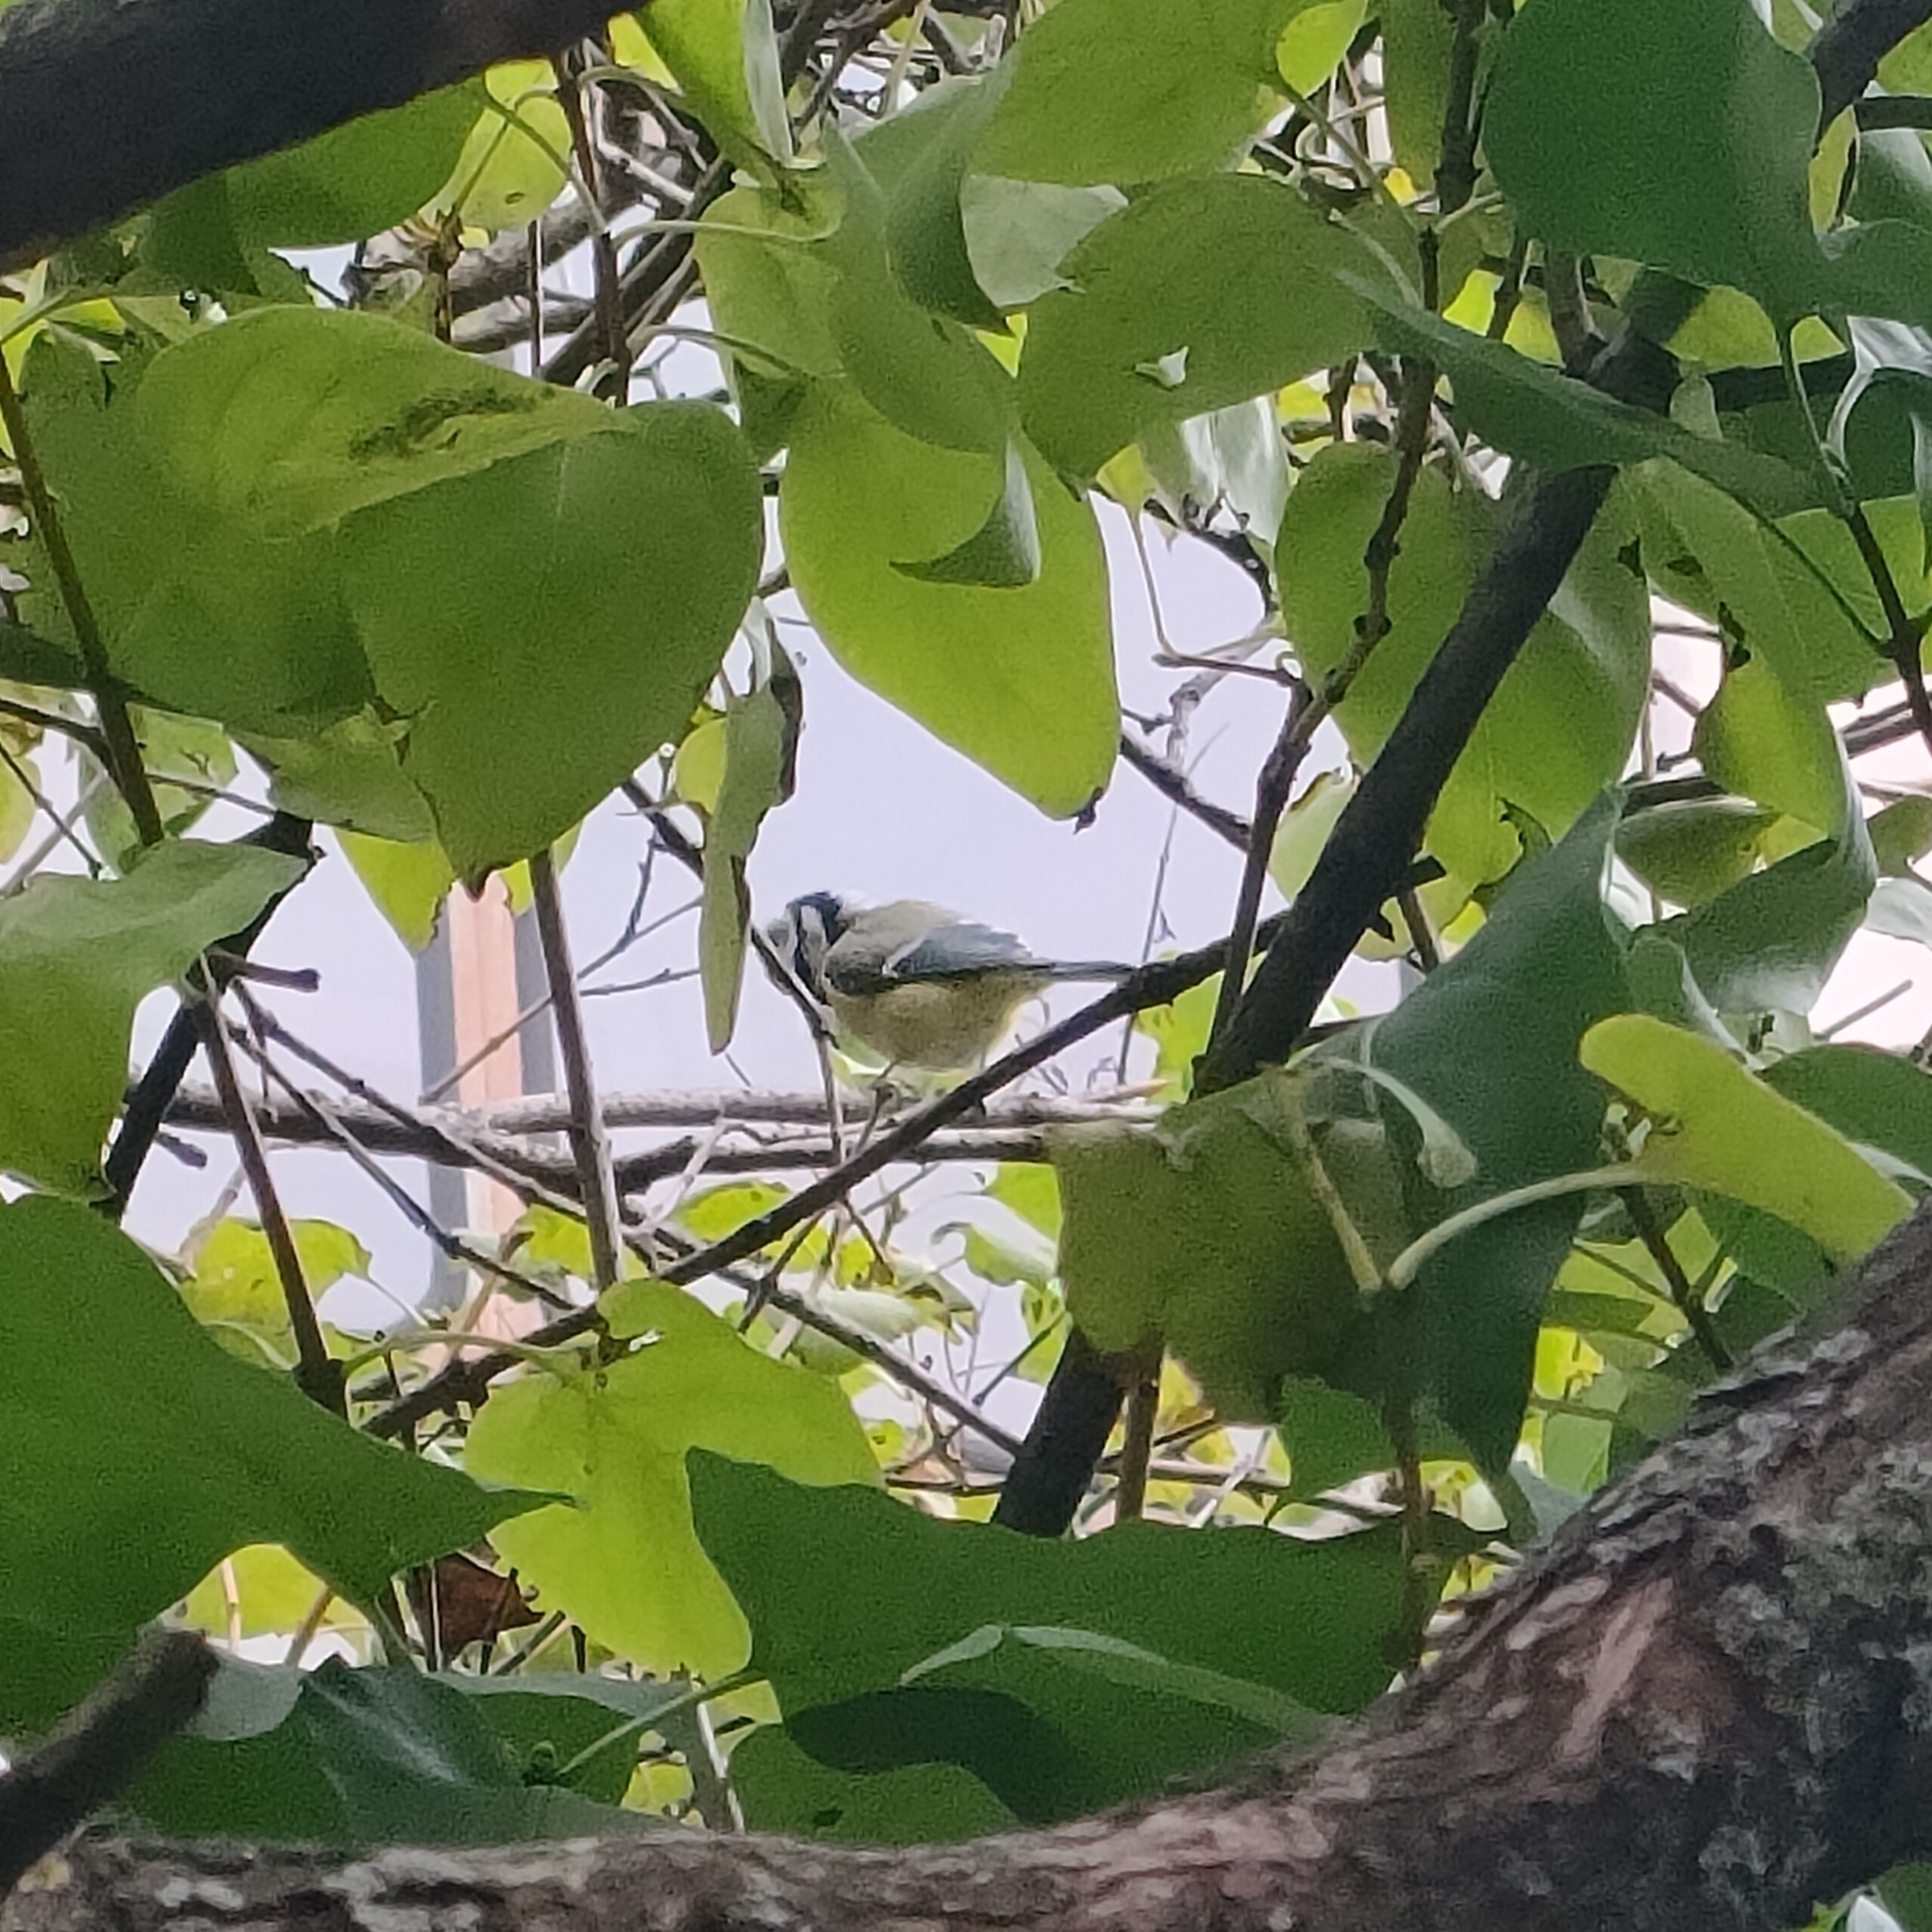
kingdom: Animalia
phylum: Chordata
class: Aves
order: Passeriformes
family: Paridae
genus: Cyanistes
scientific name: Cyanistes caeruleus
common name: Eurasian blue tit
